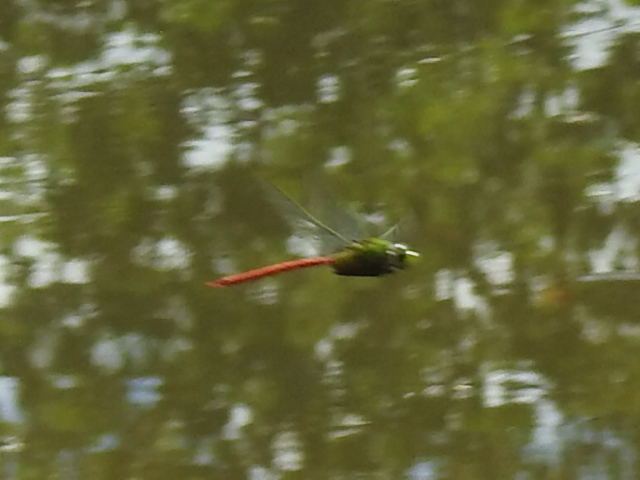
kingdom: Animalia
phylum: Arthropoda
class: Insecta
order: Odonata
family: Aeshnidae
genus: Anax
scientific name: Anax longipes
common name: Comet darner
